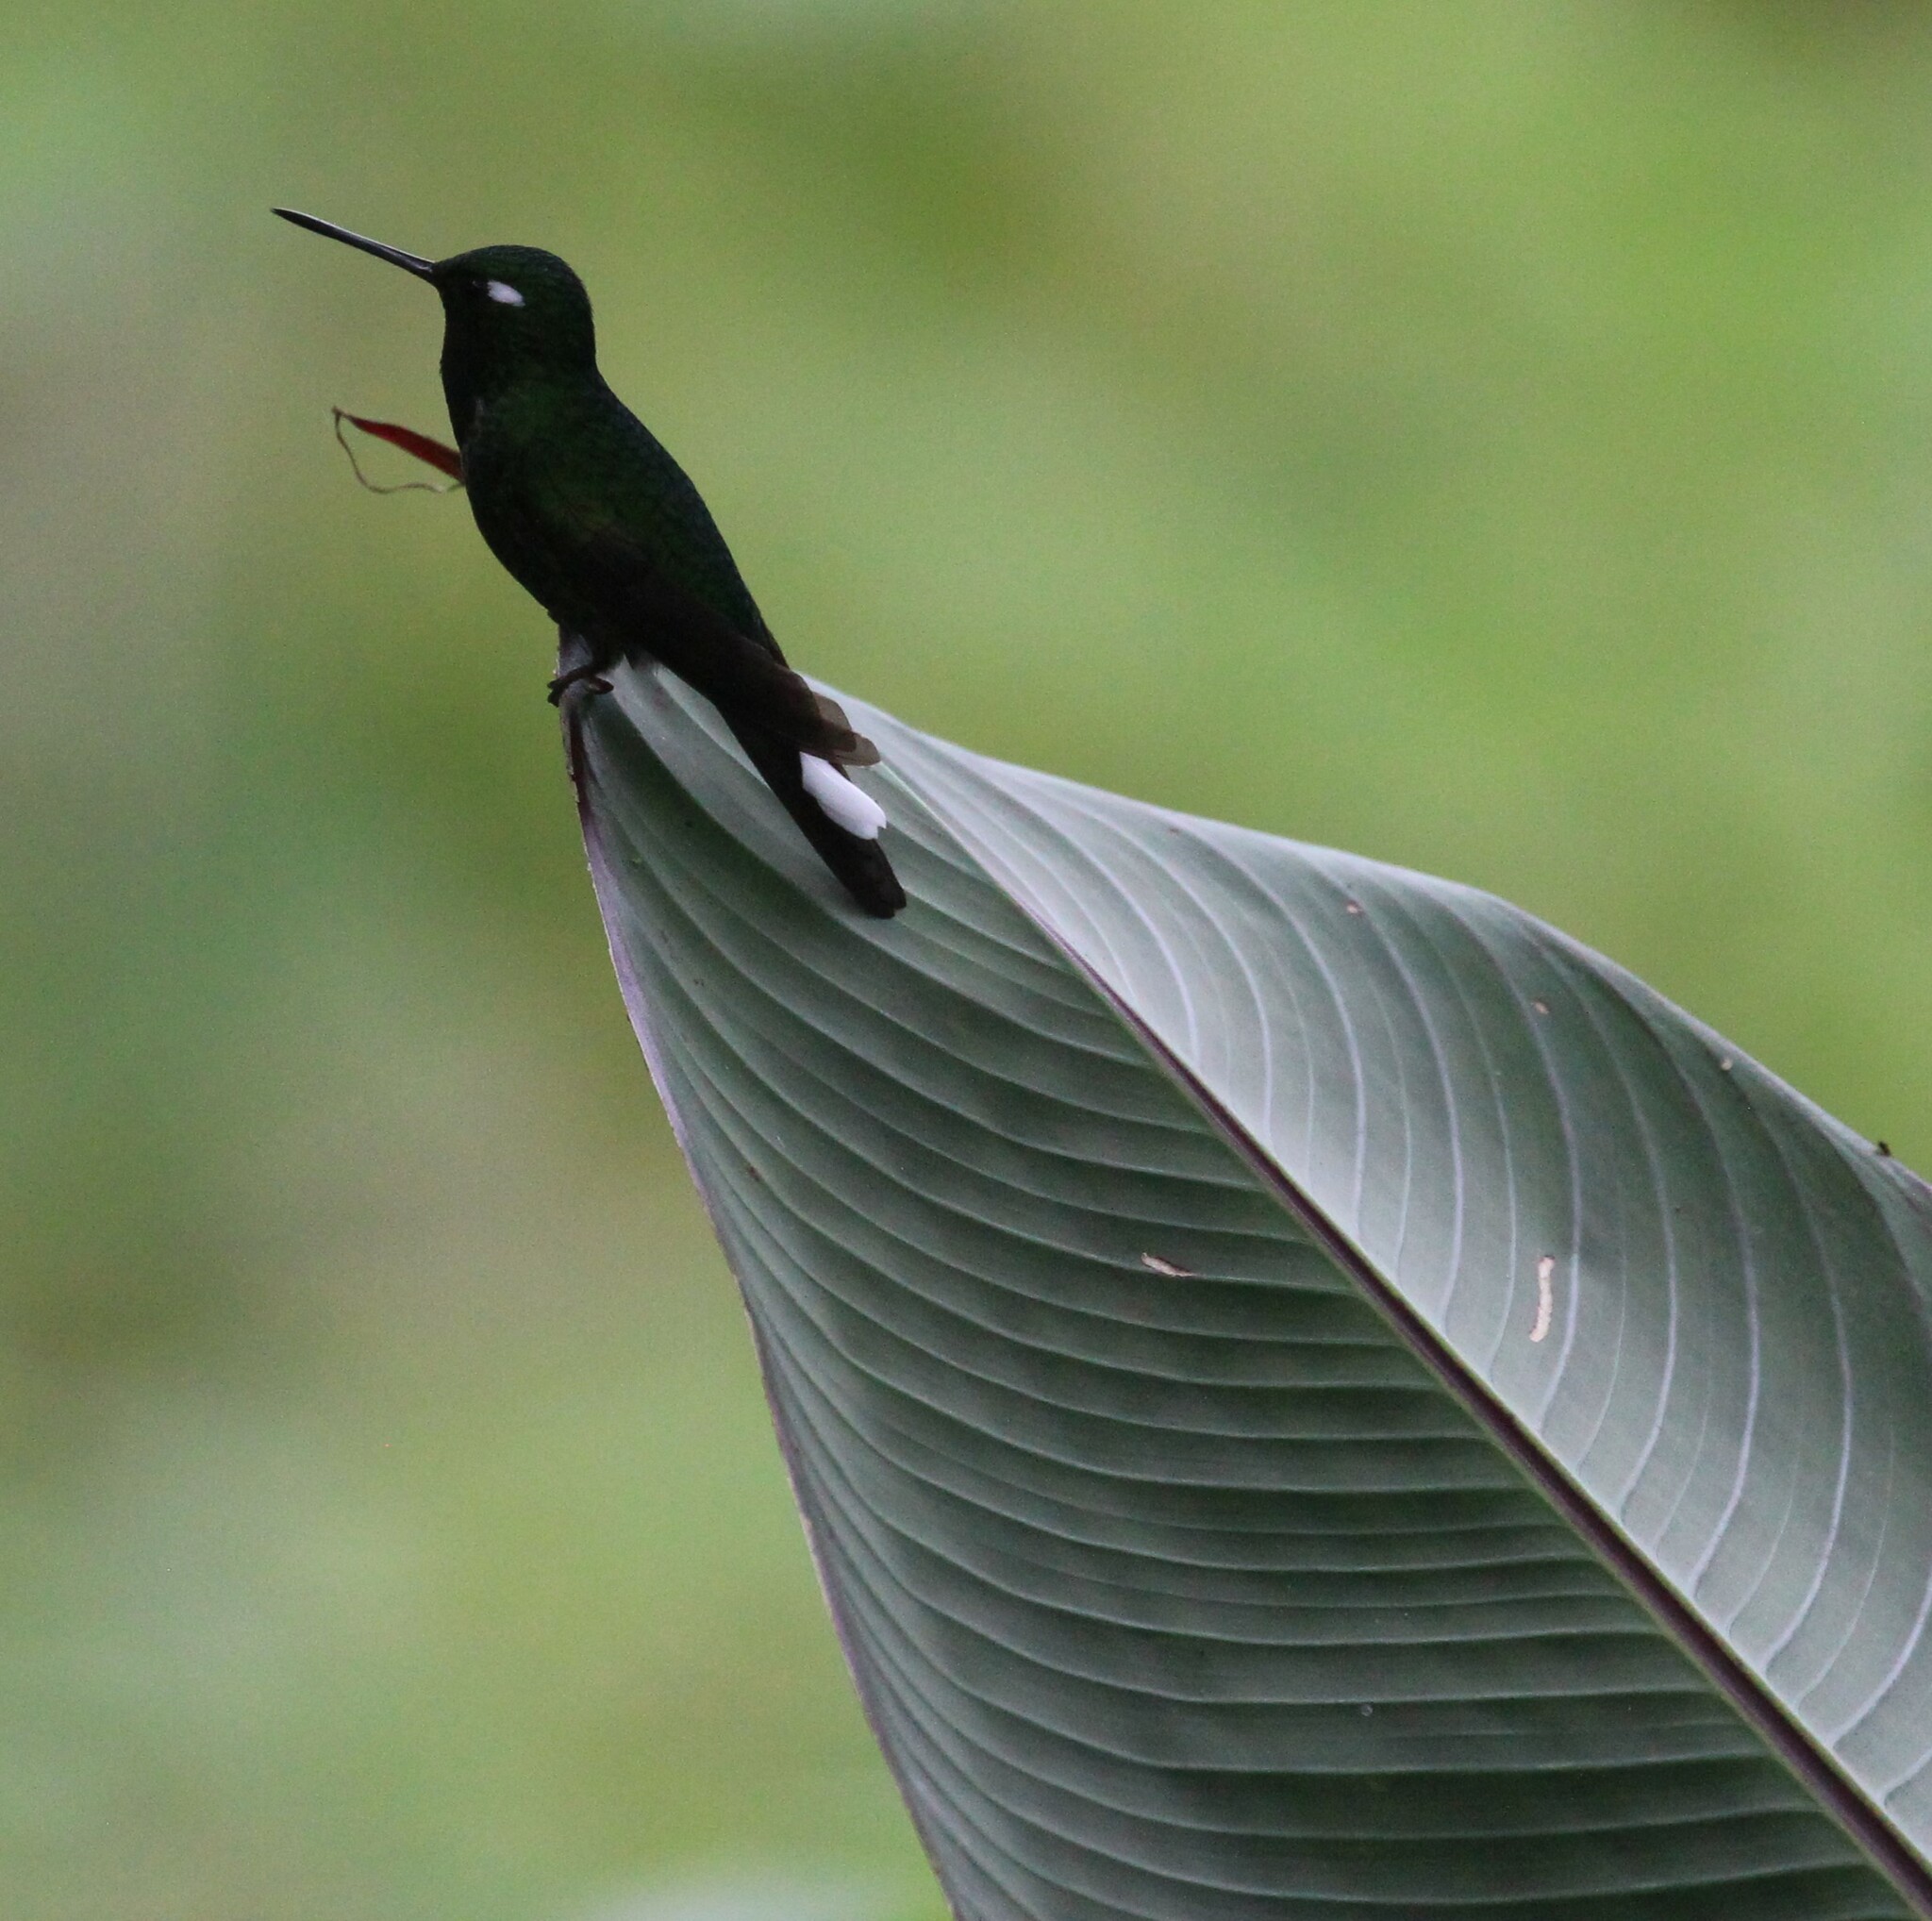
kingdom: Animalia
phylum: Chordata
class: Aves
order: Apodiformes
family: Trochilidae
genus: Urosticte
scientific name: Urosticte benjamini
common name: Purple-bibbed whitetip
